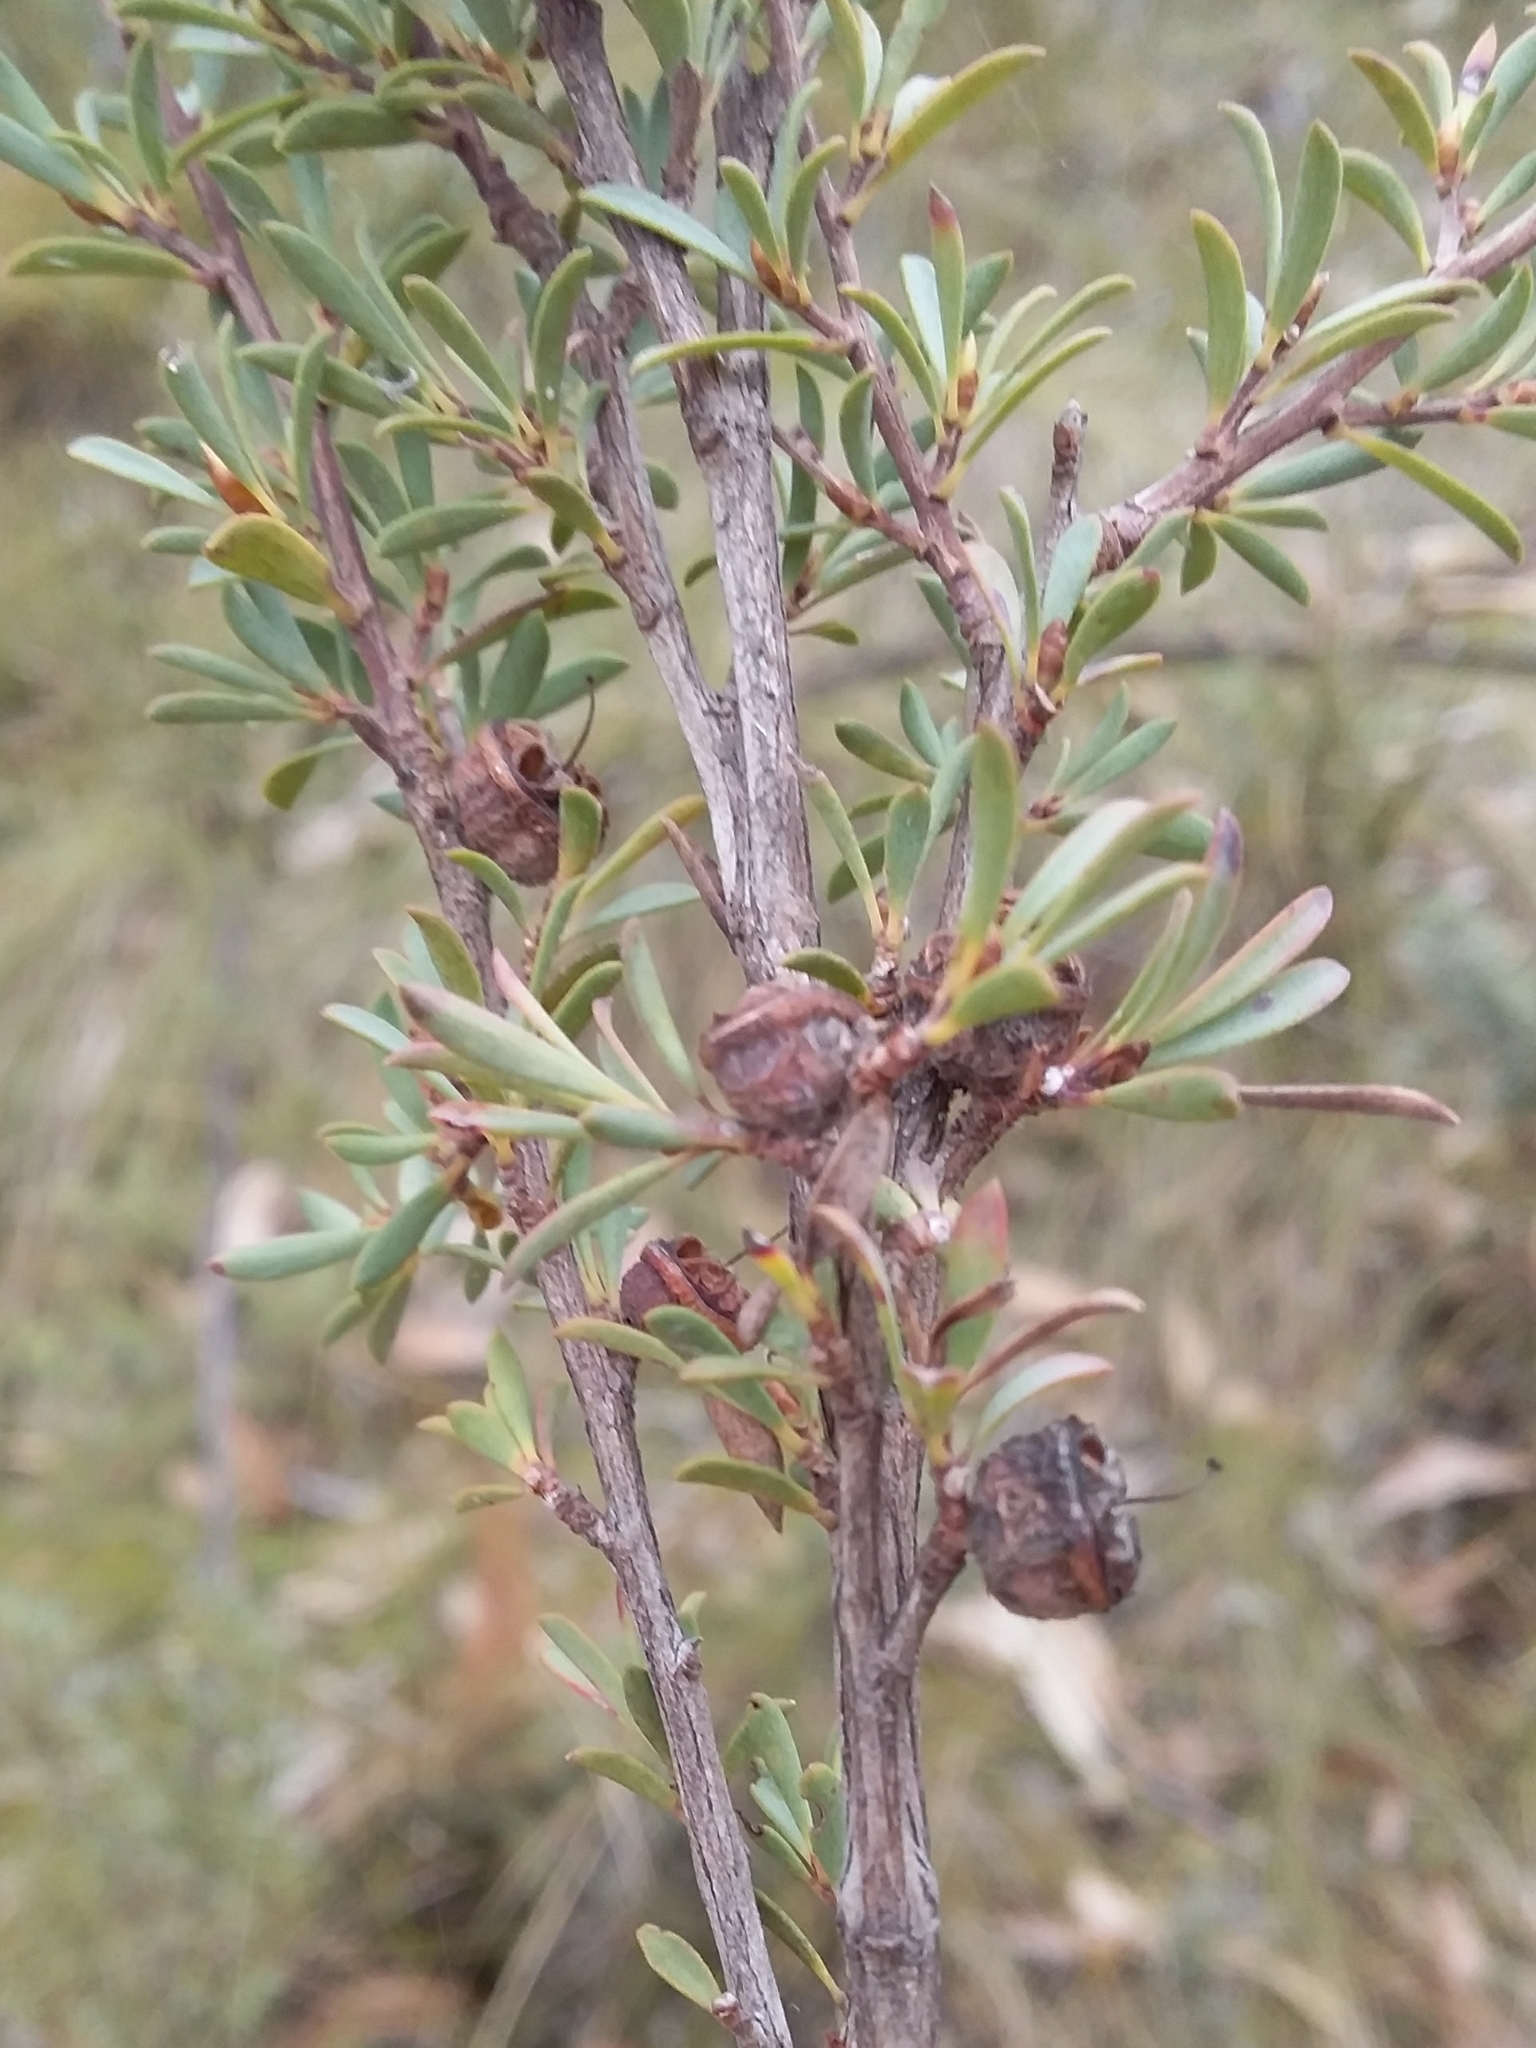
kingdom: Plantae
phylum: Tracheophyta
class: Magnoliopsida
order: Myrtales
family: Myrtaceae
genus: Leptospermum
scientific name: Leptospermum myrsinoides
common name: Heath teatree
